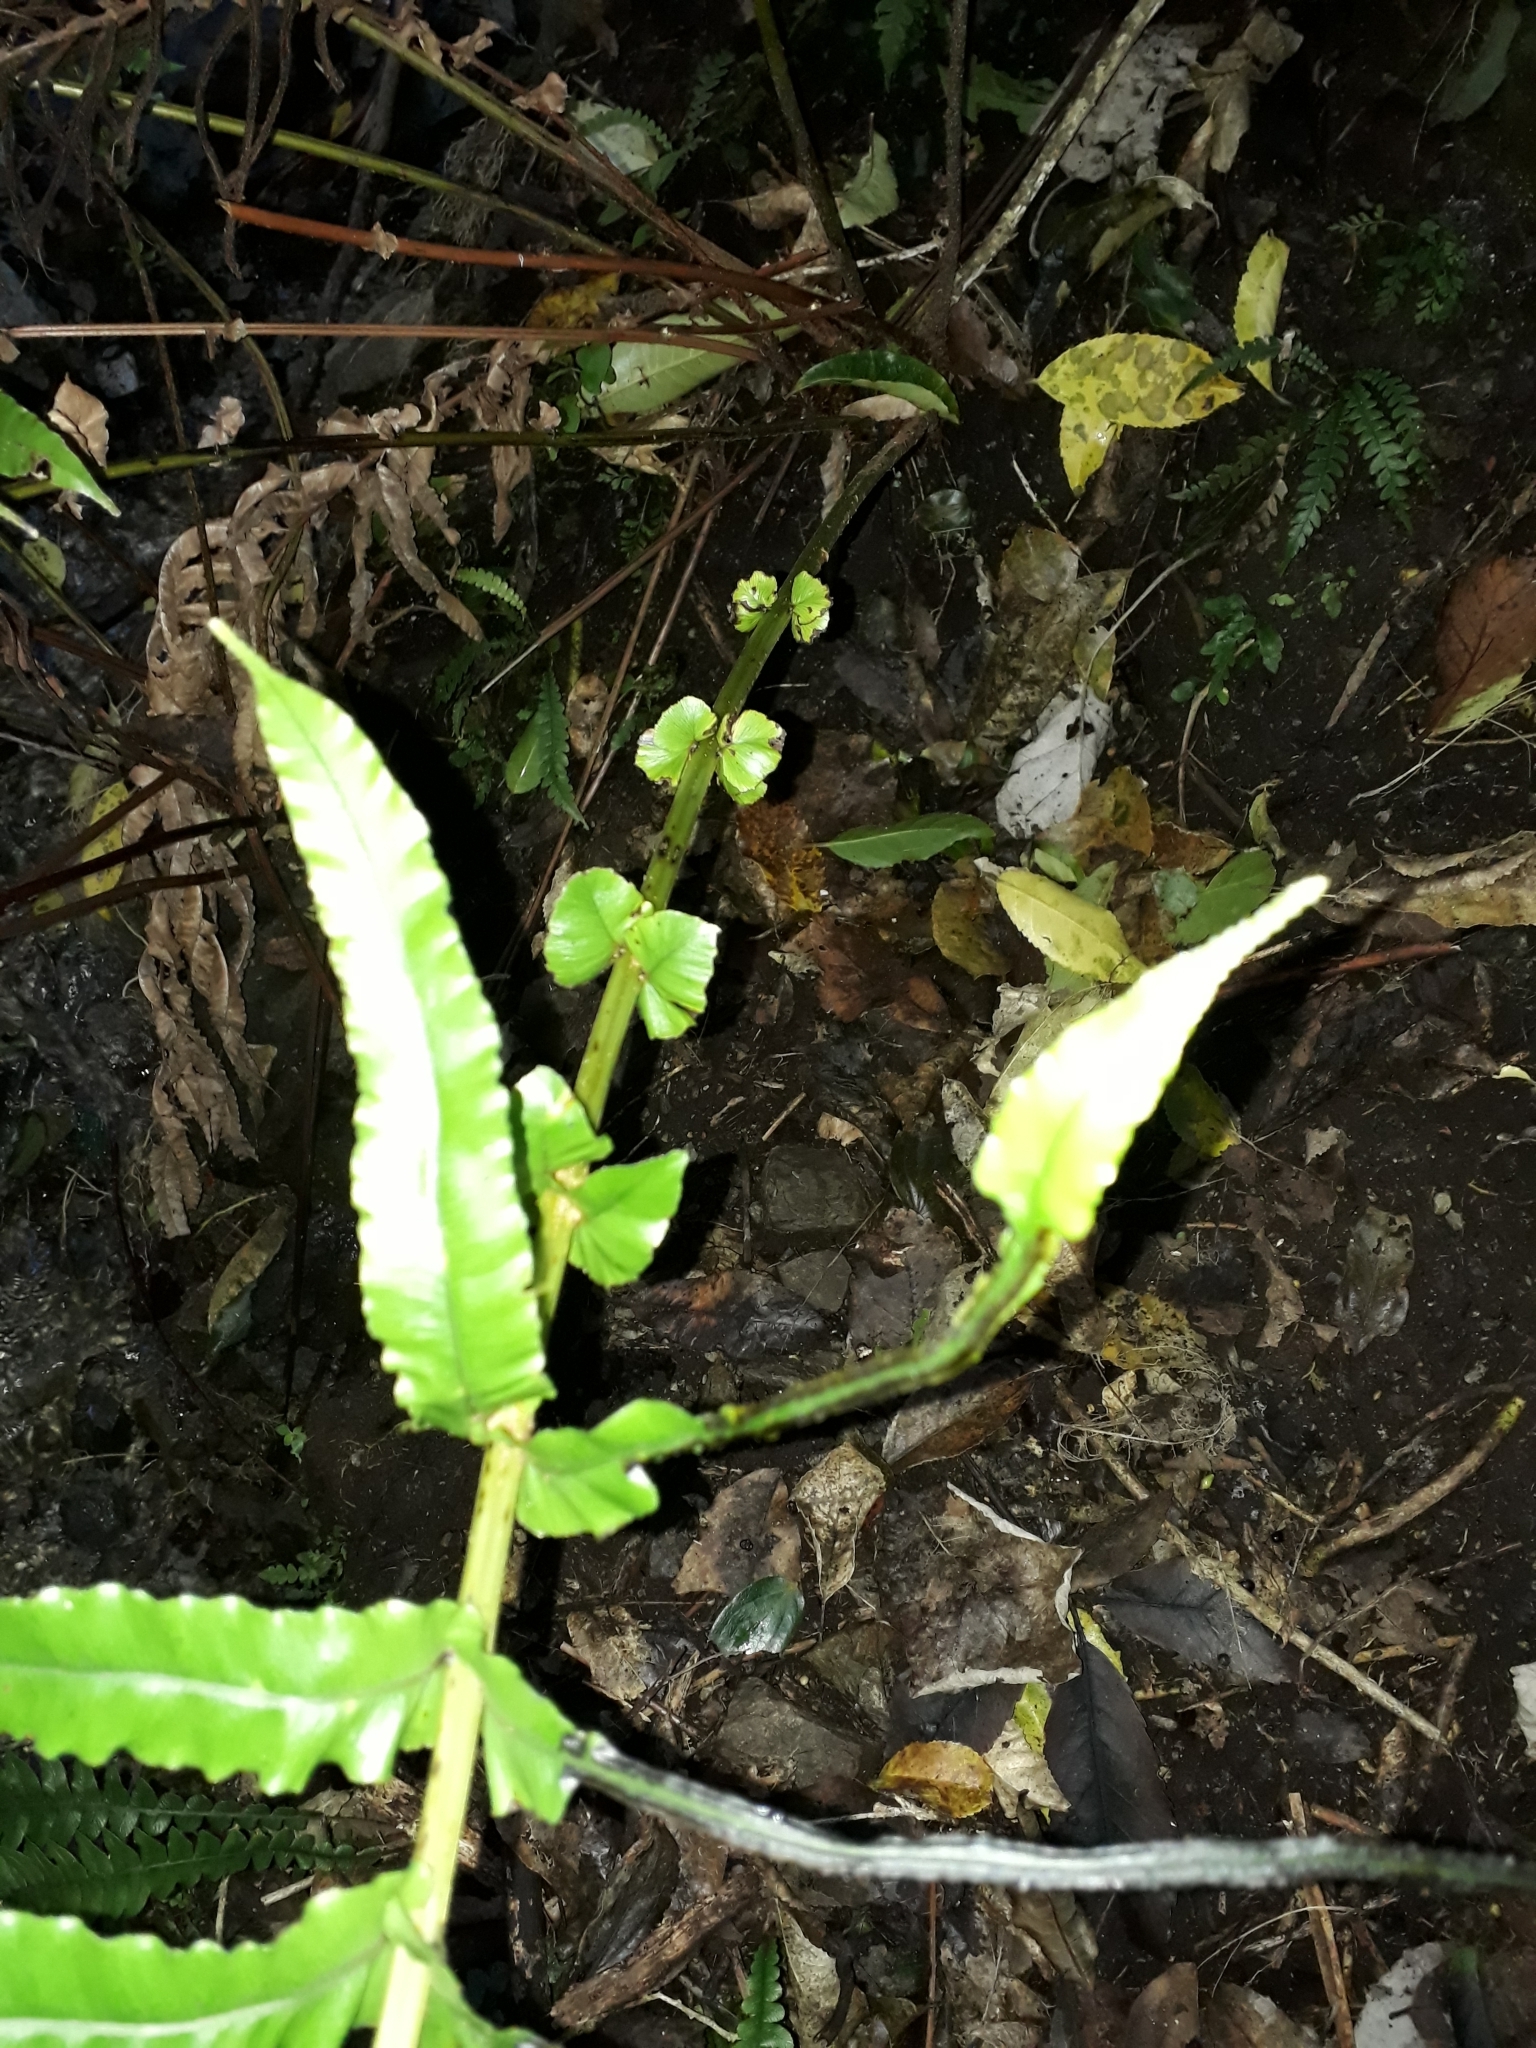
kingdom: Plantae
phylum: Tracheophyta
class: Polypodiopsida
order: Polypodiales
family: Blechnaceae
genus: Parablechnum
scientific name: Parablechnum novae-zelandiae
